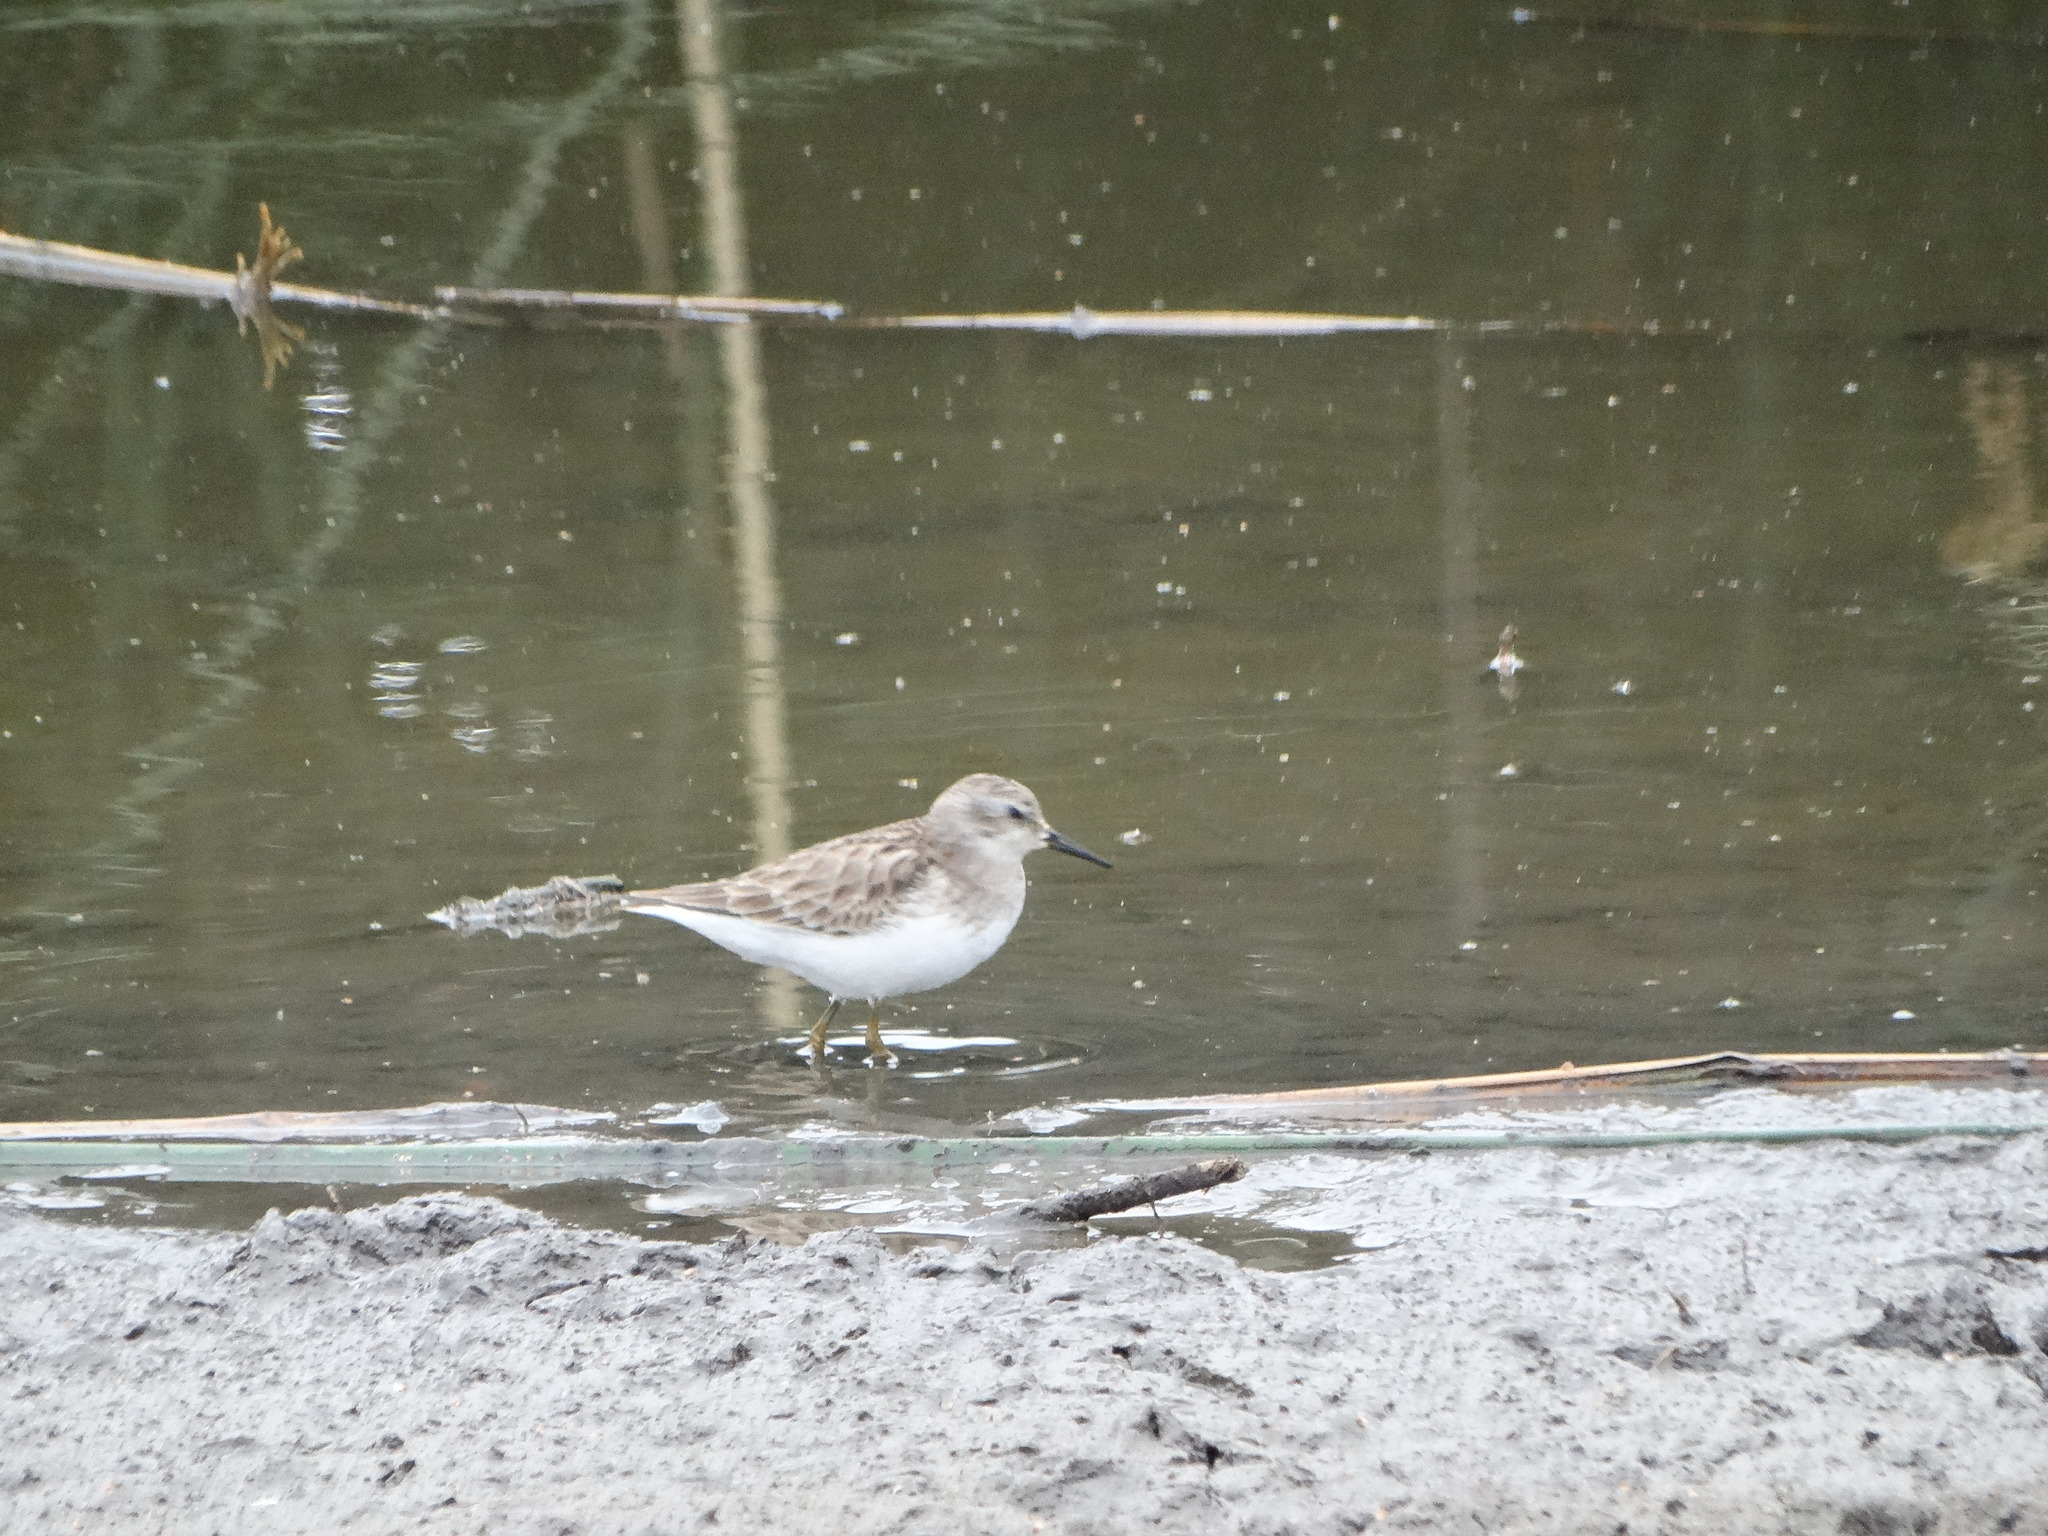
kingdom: Animalia
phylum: Chordata
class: Aves
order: Charadriiformes
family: Scolopacidae
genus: Calidris
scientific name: Calidris minutilla
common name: Least sandpiper
